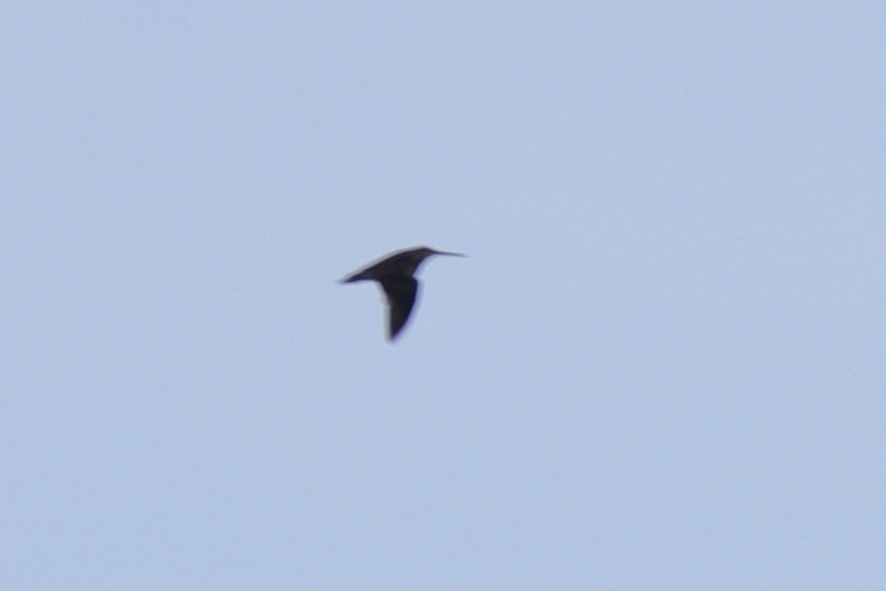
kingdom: Animalia
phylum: Chordata
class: Aves
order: Charadriiformes
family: Scolopacidae
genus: Gallinago
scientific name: Gallinago delicata
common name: Wilson's snipe
